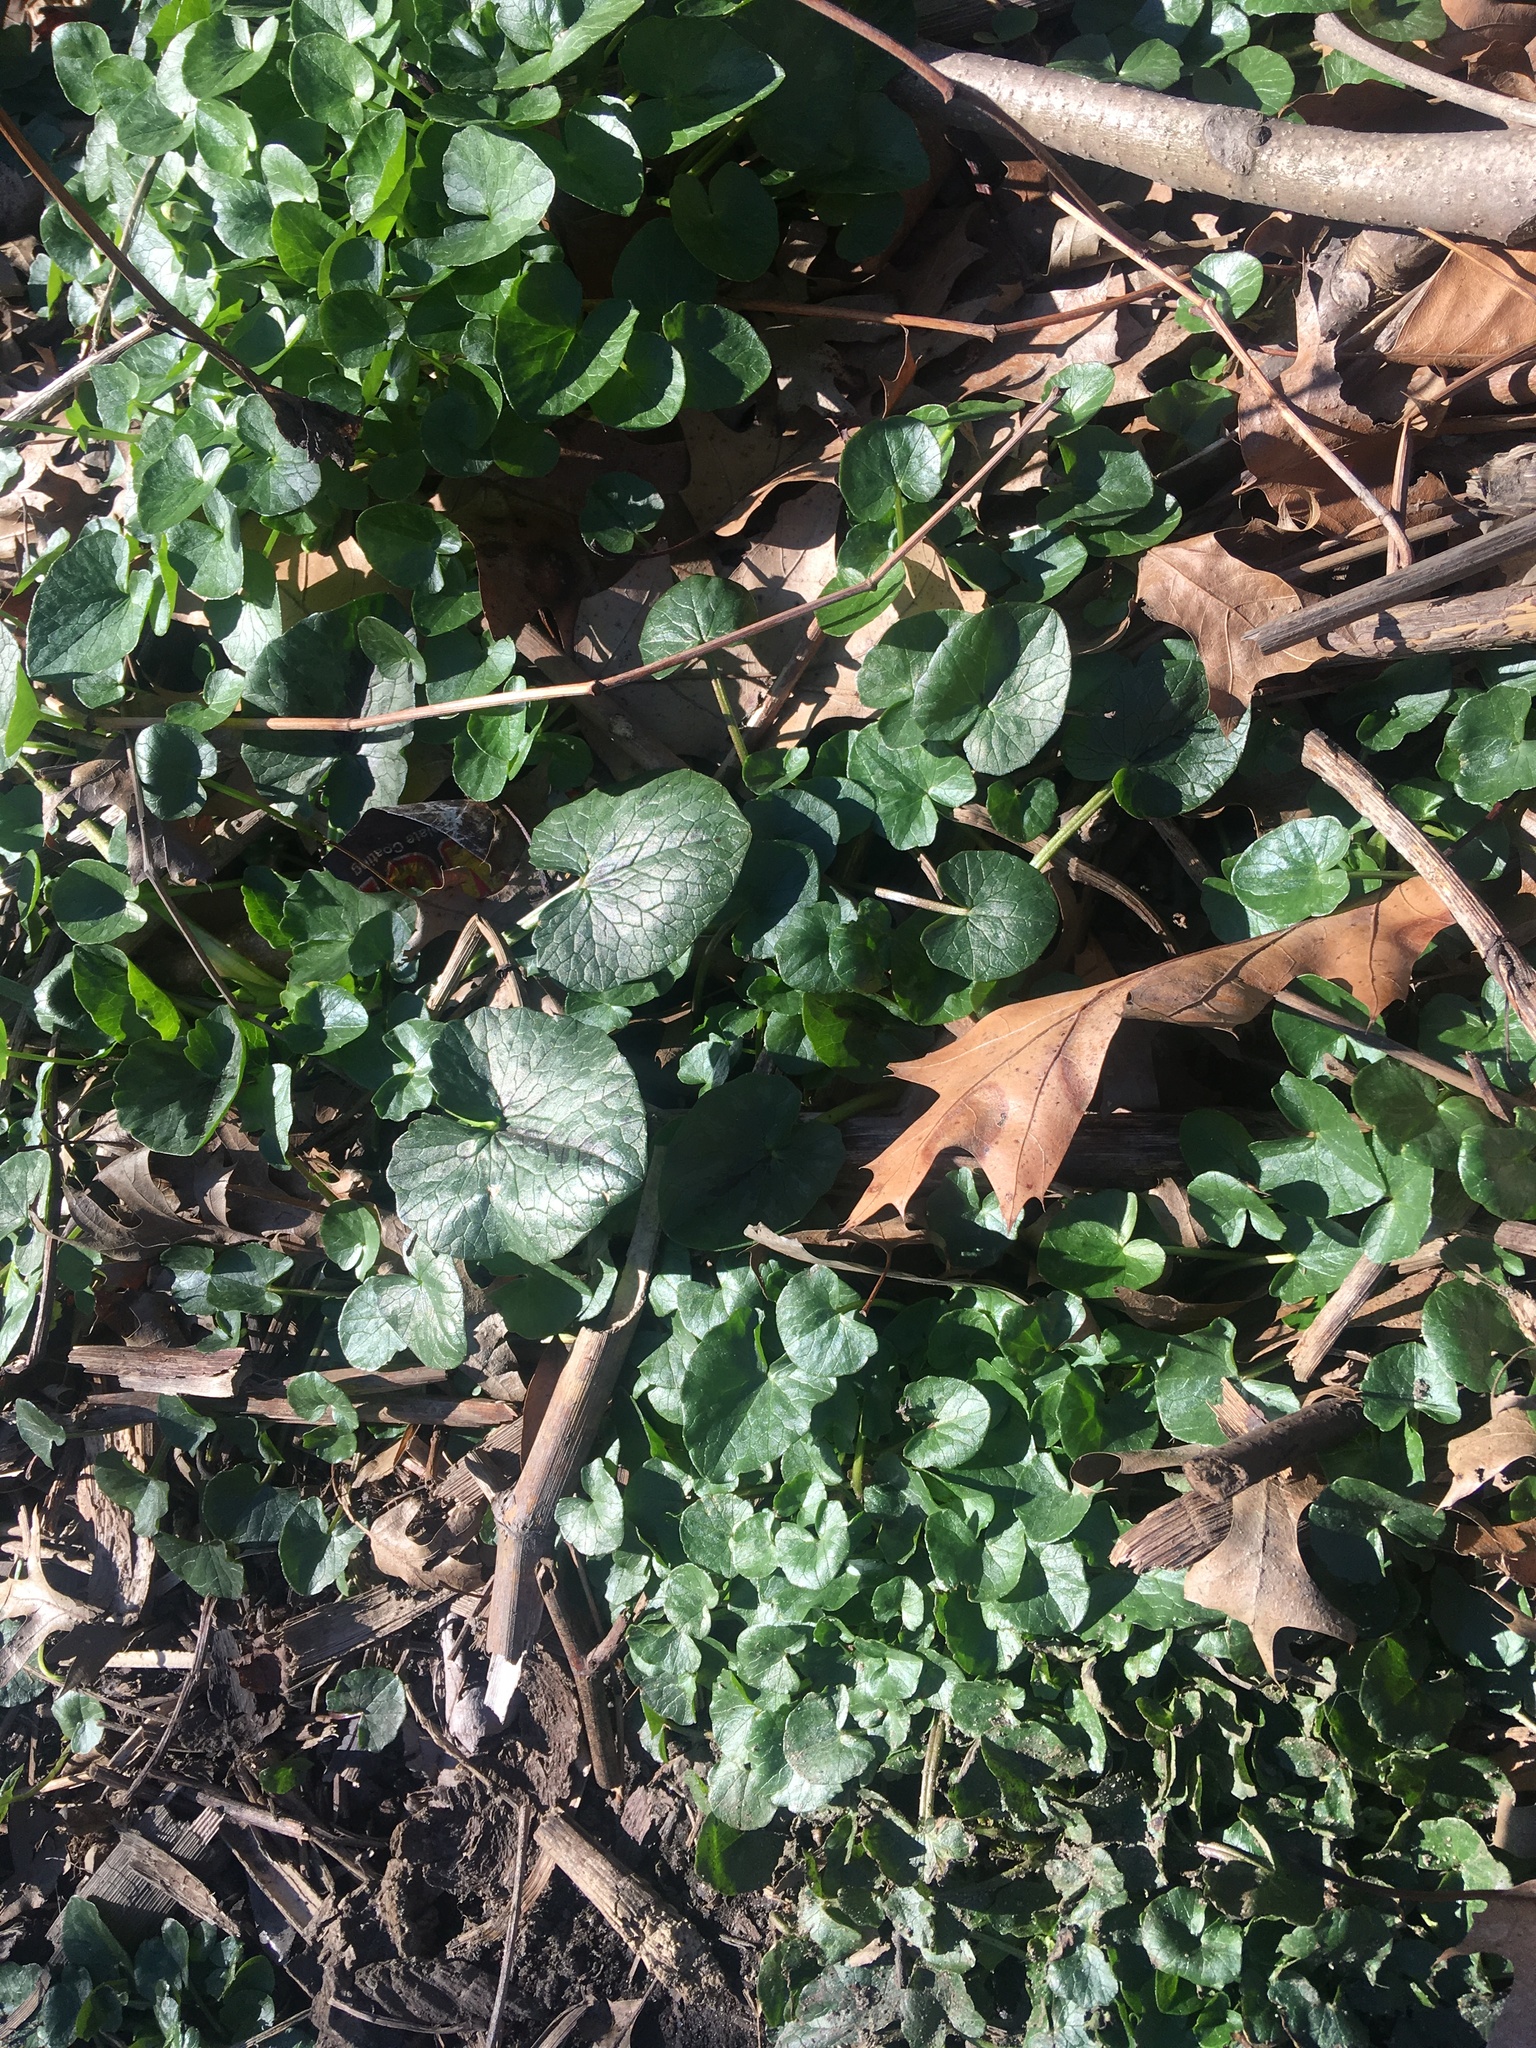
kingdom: Plantae
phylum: Tracheophyta
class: Magnoliopsida
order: Ranunculales
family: Ranunculaceae
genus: Ficaria
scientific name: Ficaria verna
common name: Lesser celandine
